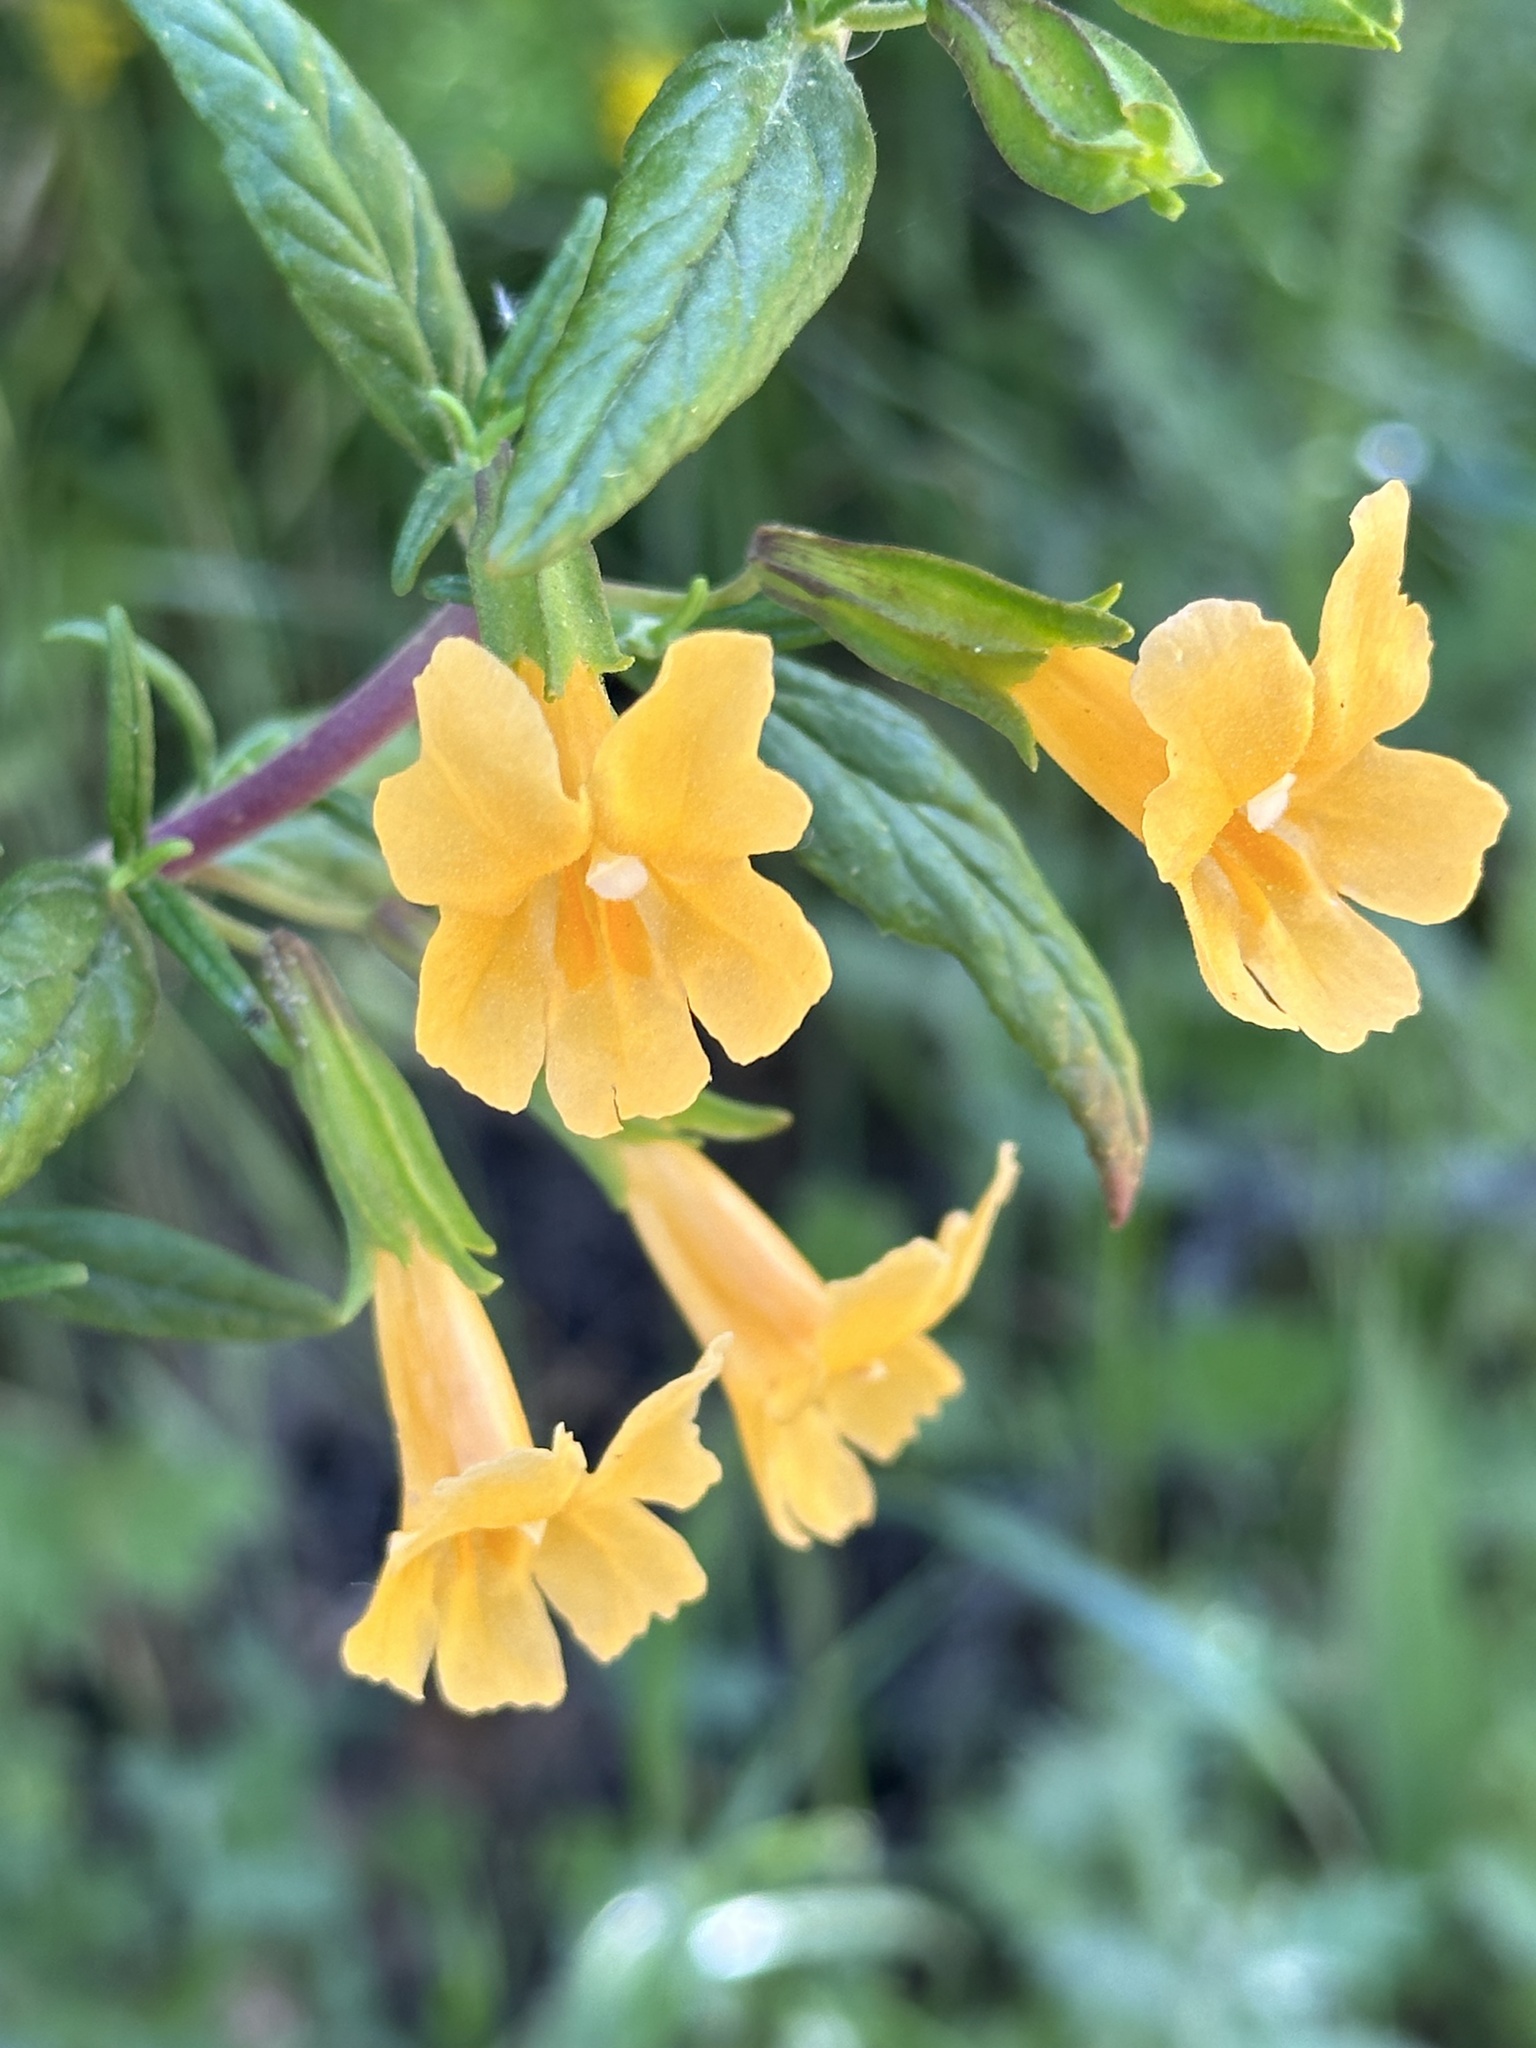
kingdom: Plantae
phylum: Tracheophyta
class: Magnoliopsida
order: Lamiales
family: Phrymaceae
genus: Diplacus
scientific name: Diplacus aurantiacus
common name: Bush monkey-flower
